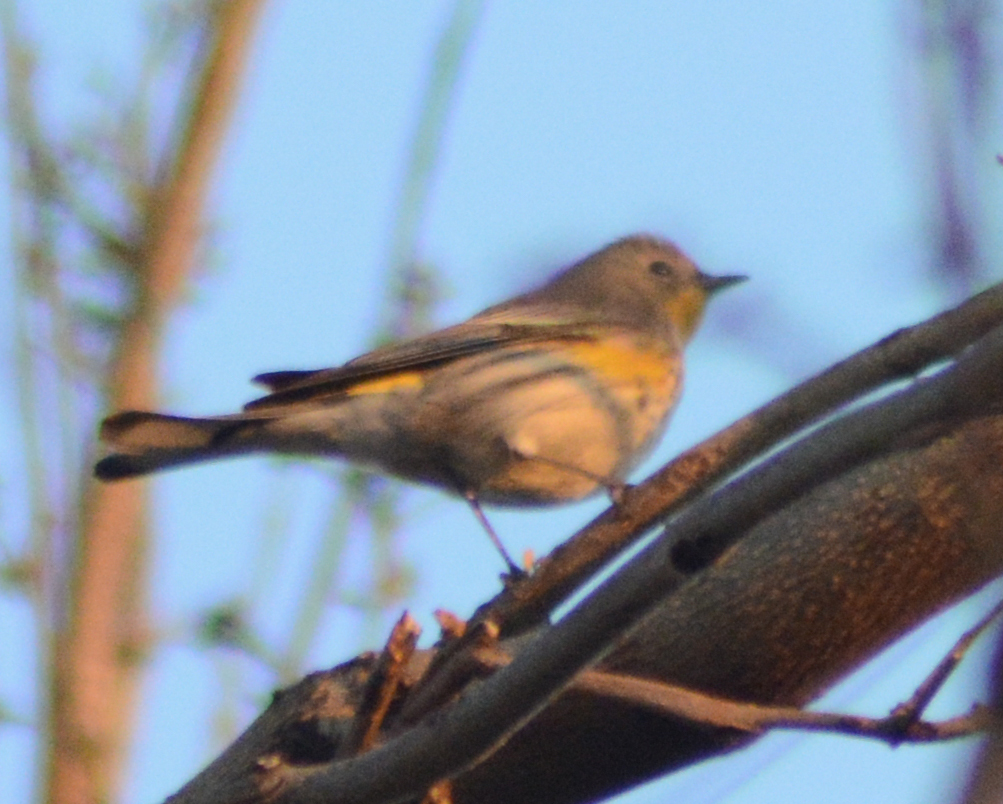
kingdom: Animalia
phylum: Chordata
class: Aves
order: Passeriformes
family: Parulidae
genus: Setophaga
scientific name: Setophaga coronata
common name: Myrtle warbler
